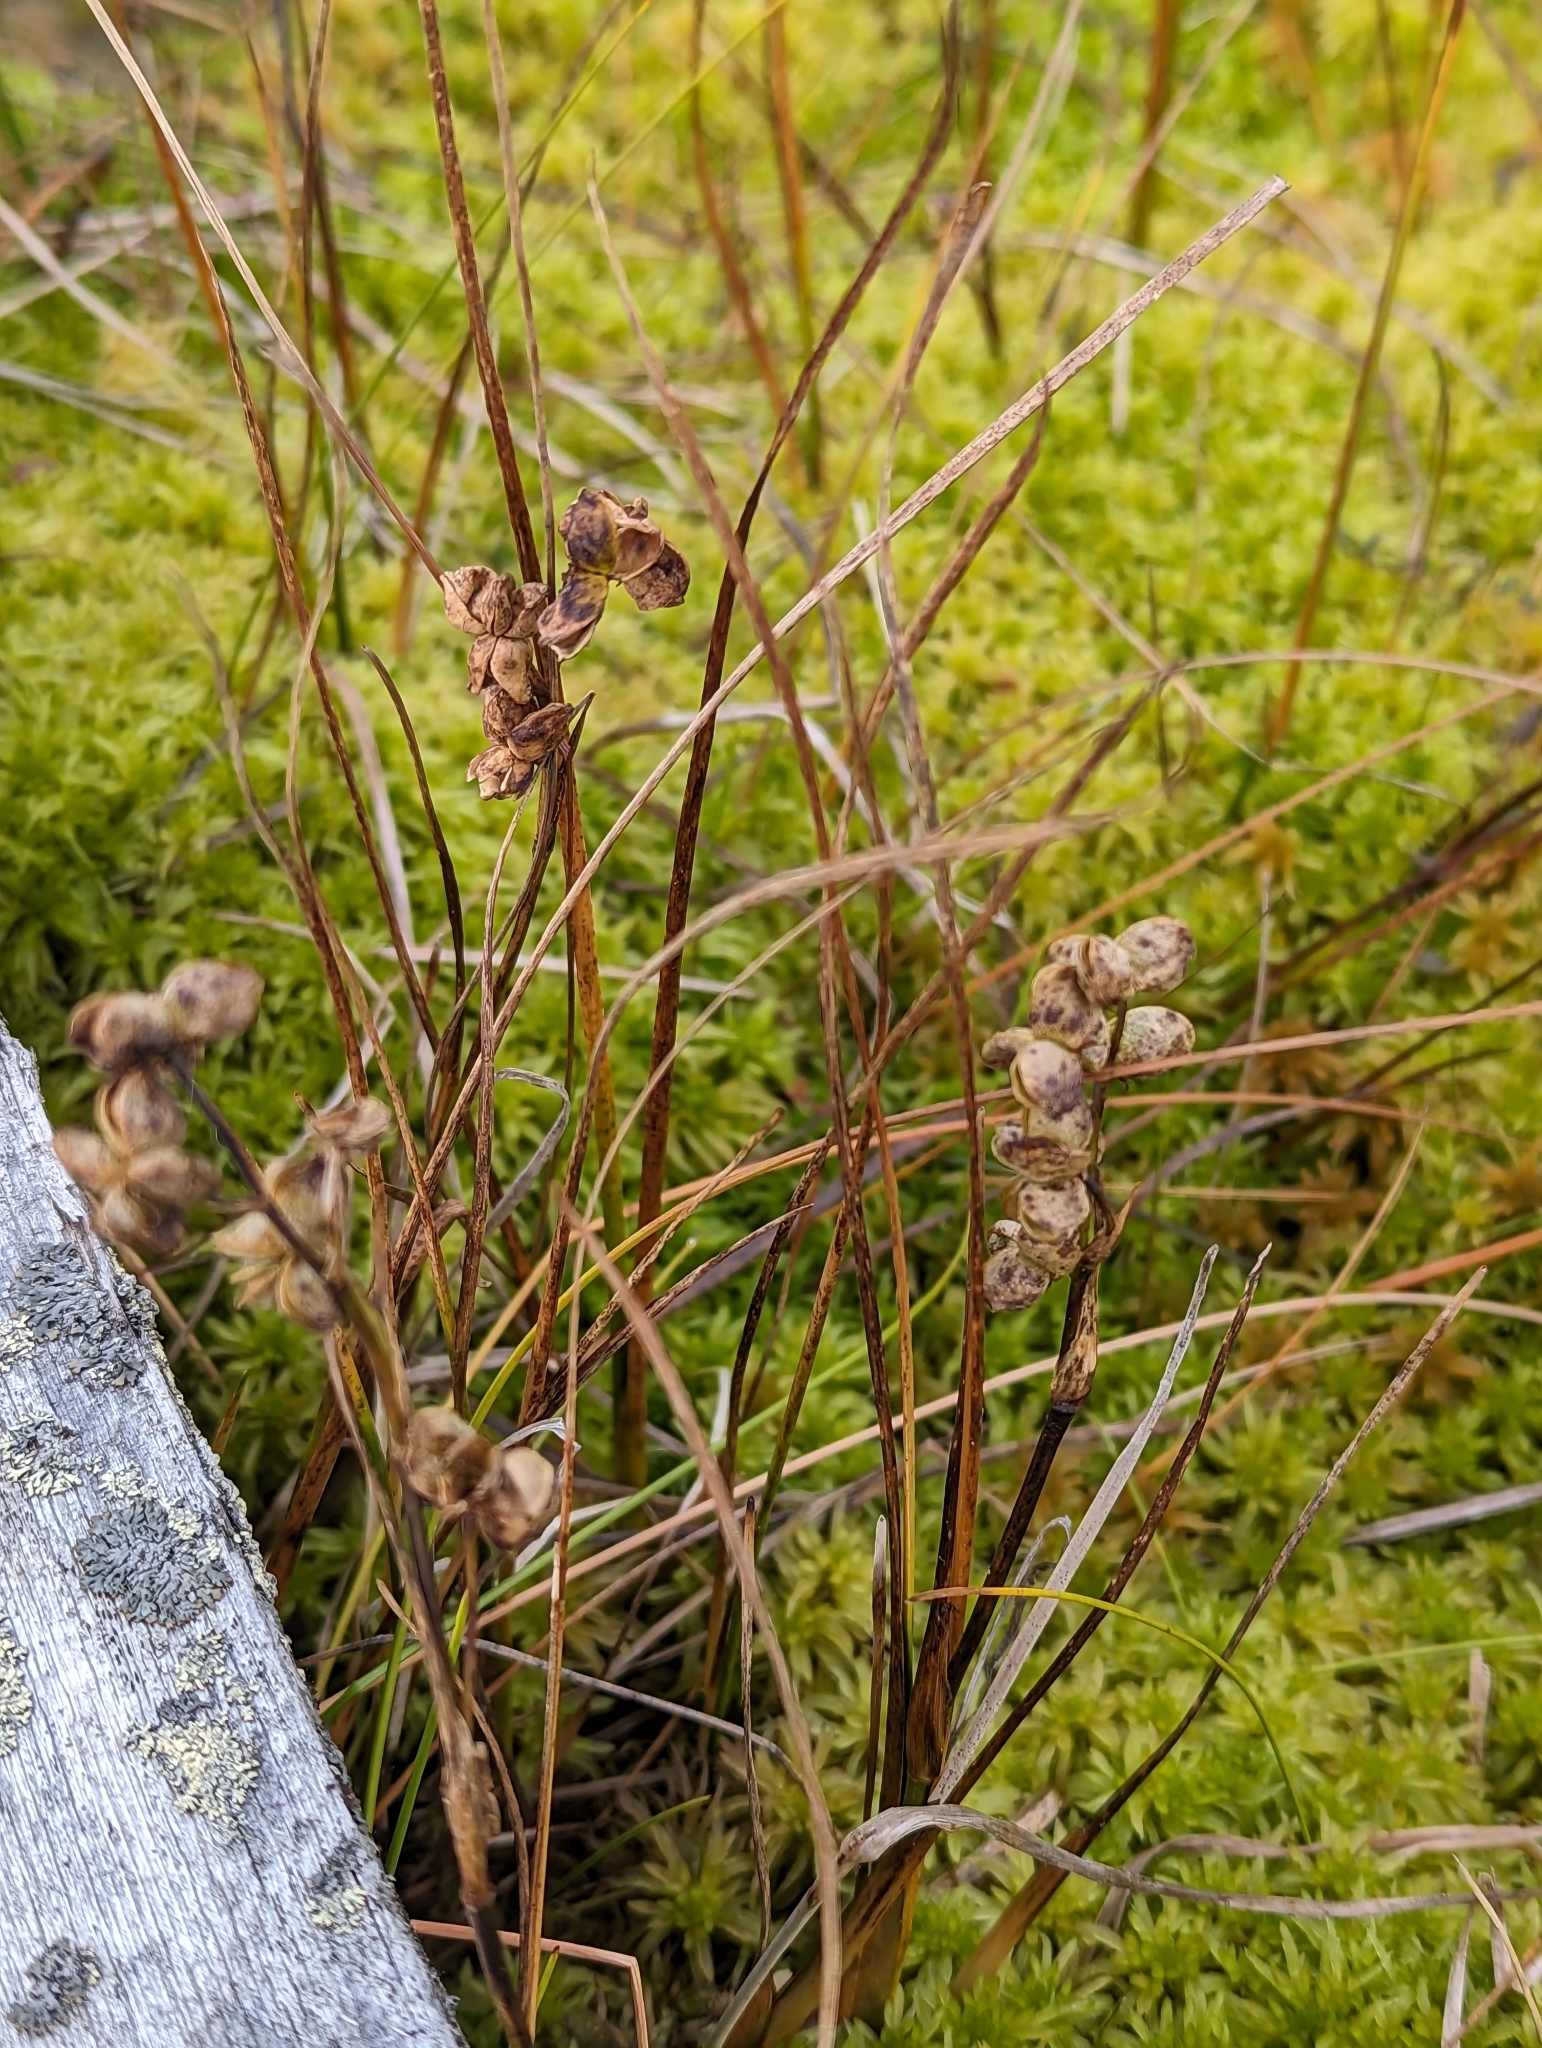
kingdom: Plantae
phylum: Tracheophyta
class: Liliopsida
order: Alismatales
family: Scheuchzeriaceae
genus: Scheuchzeria
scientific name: Scheuchzeria palustris
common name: Rannoch-rush
